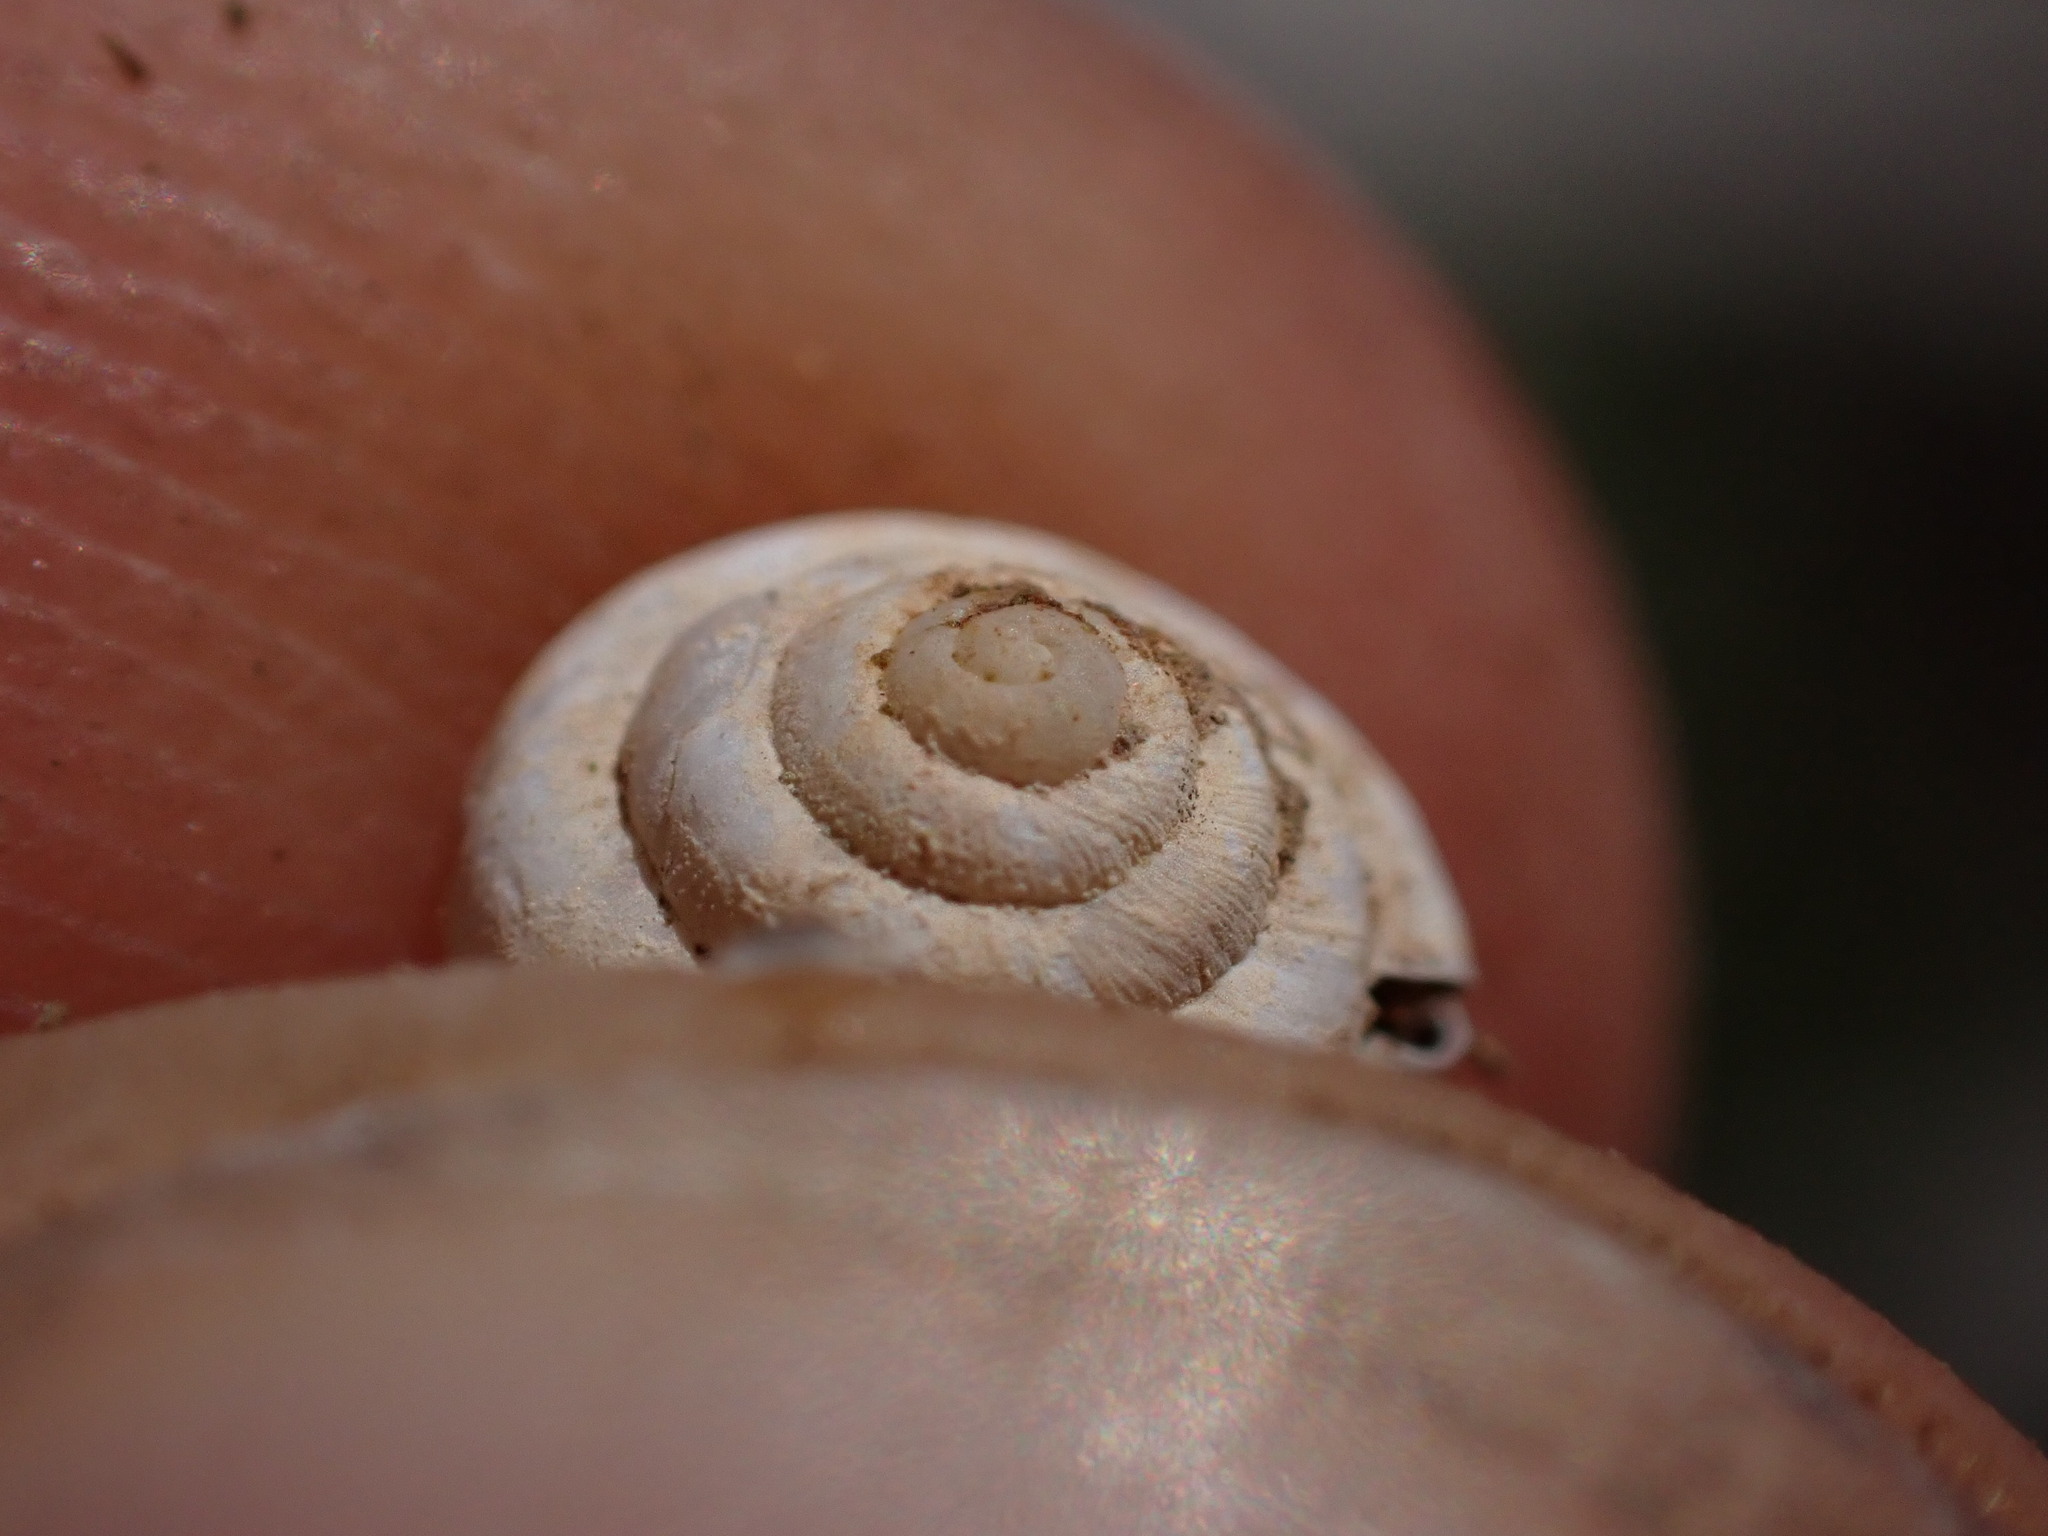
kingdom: Animalia
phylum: Mollusca
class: Gastropoda
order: Stylommatophora
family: Geomitridae
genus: Trochoidea
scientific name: Trochoidea trochoides
